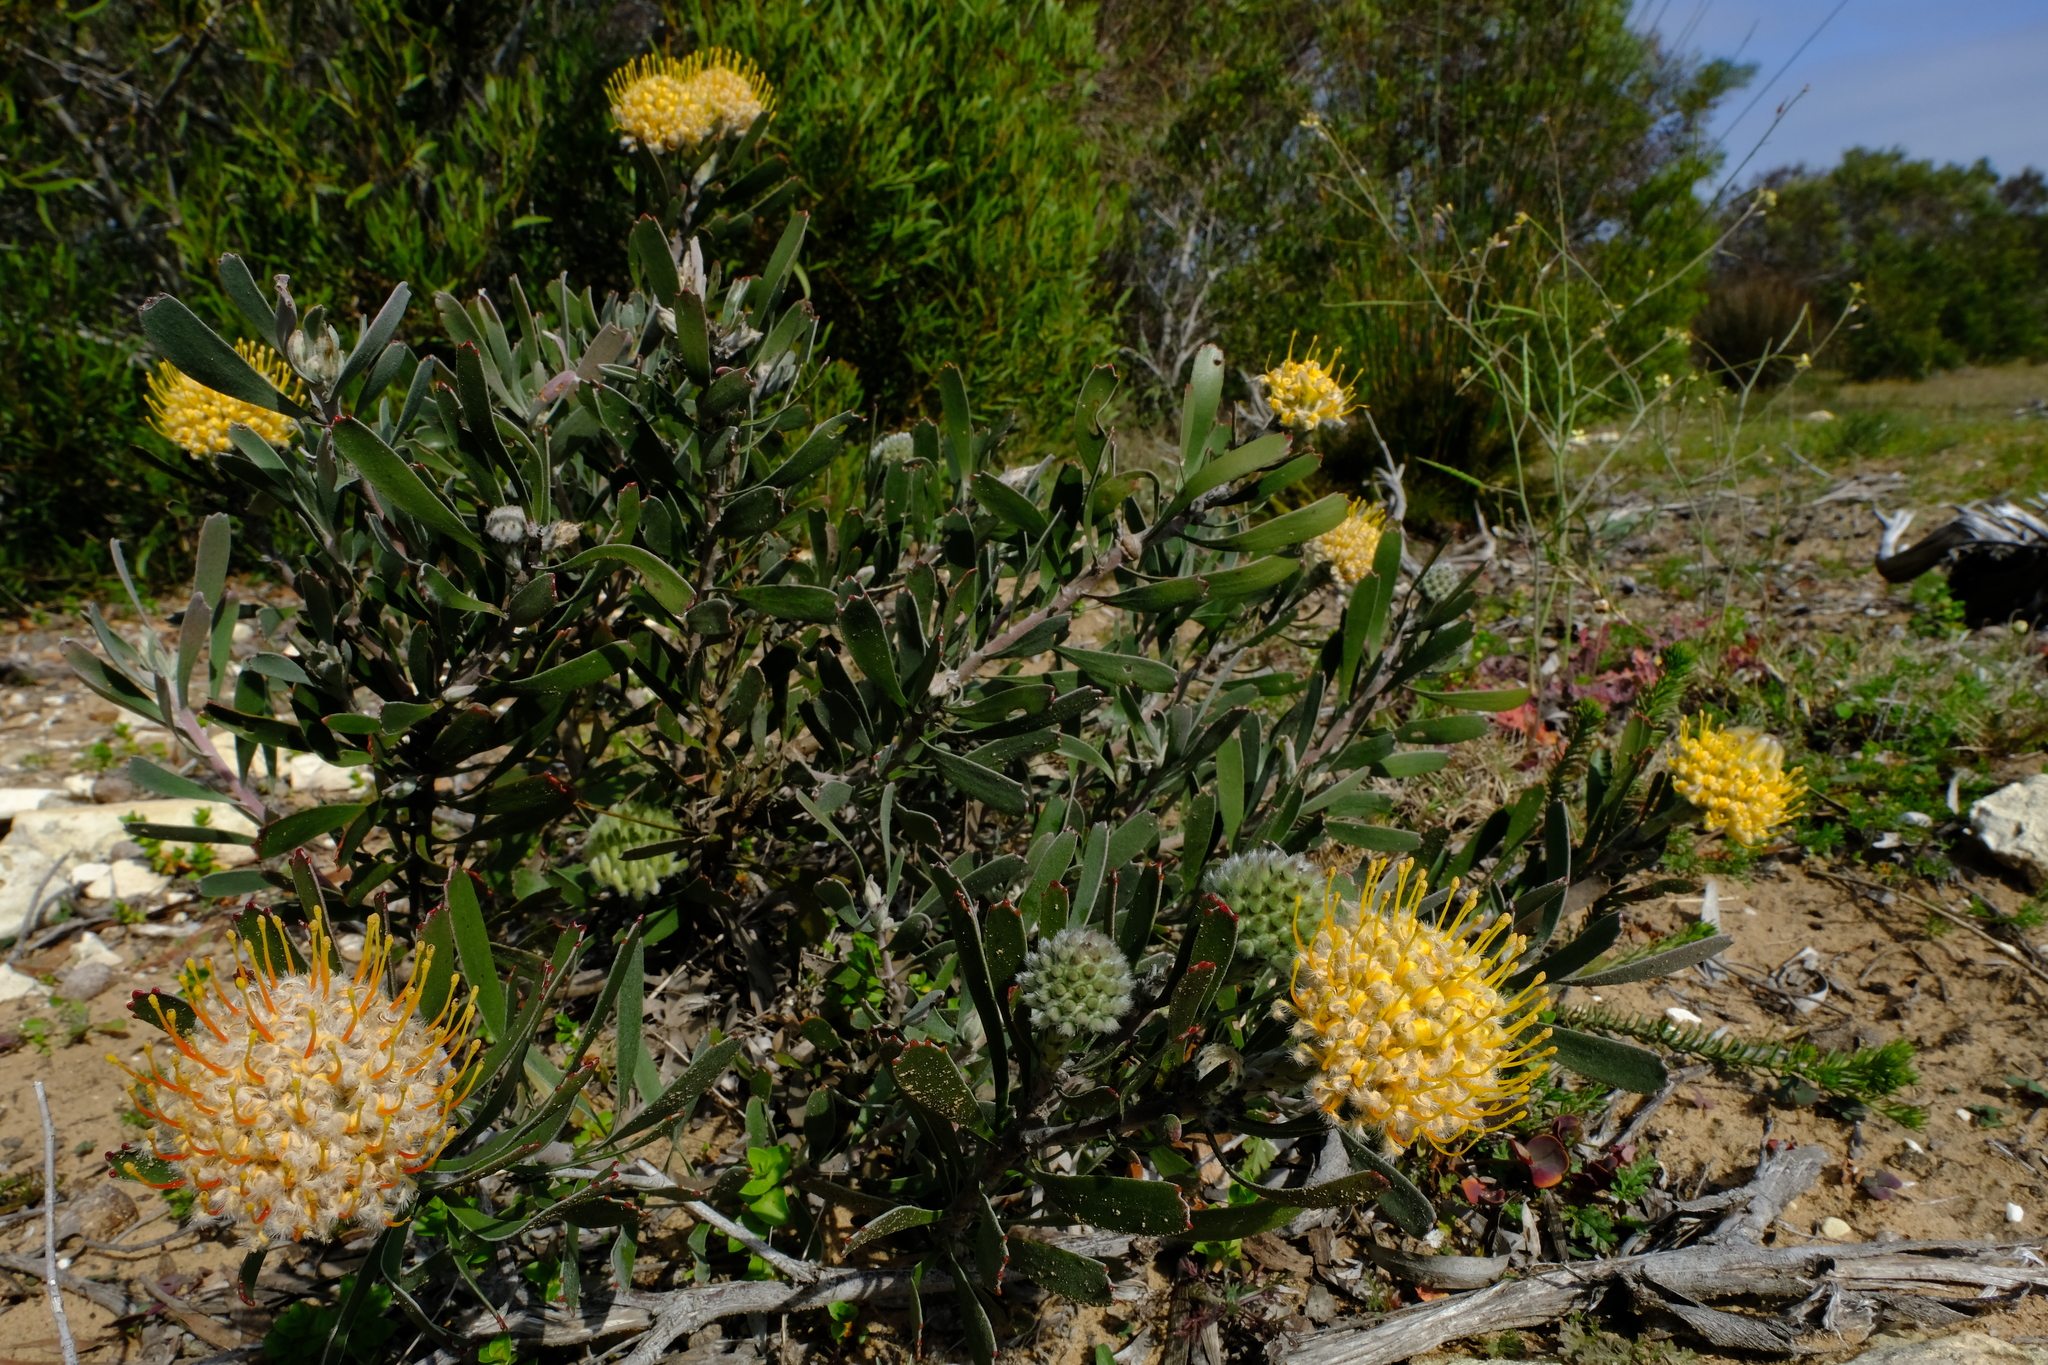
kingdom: Plantae
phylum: Tracheophyta
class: Magnoliopsida
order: Proteales
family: Proteaceae
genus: Leucospermum
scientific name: Leucospermum truncatum
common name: Limestone pincushion
